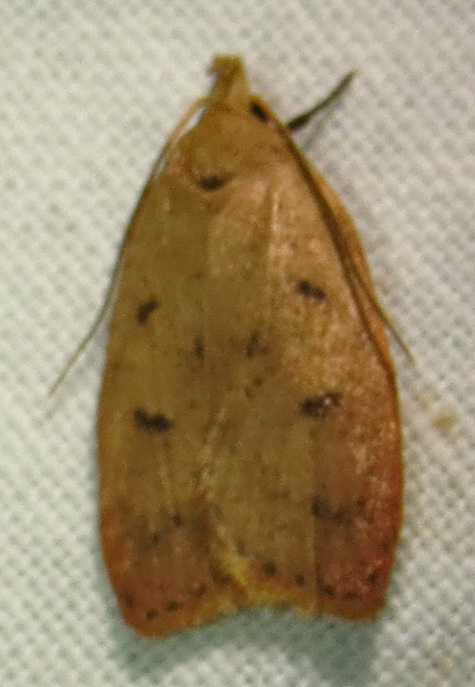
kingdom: Animalia
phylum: Arthropoda
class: Insecta
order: Lepidoptera
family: Peleopodidae
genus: Machimia
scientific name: Machimia tentoriferella
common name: Gold-striped leaftier moth
